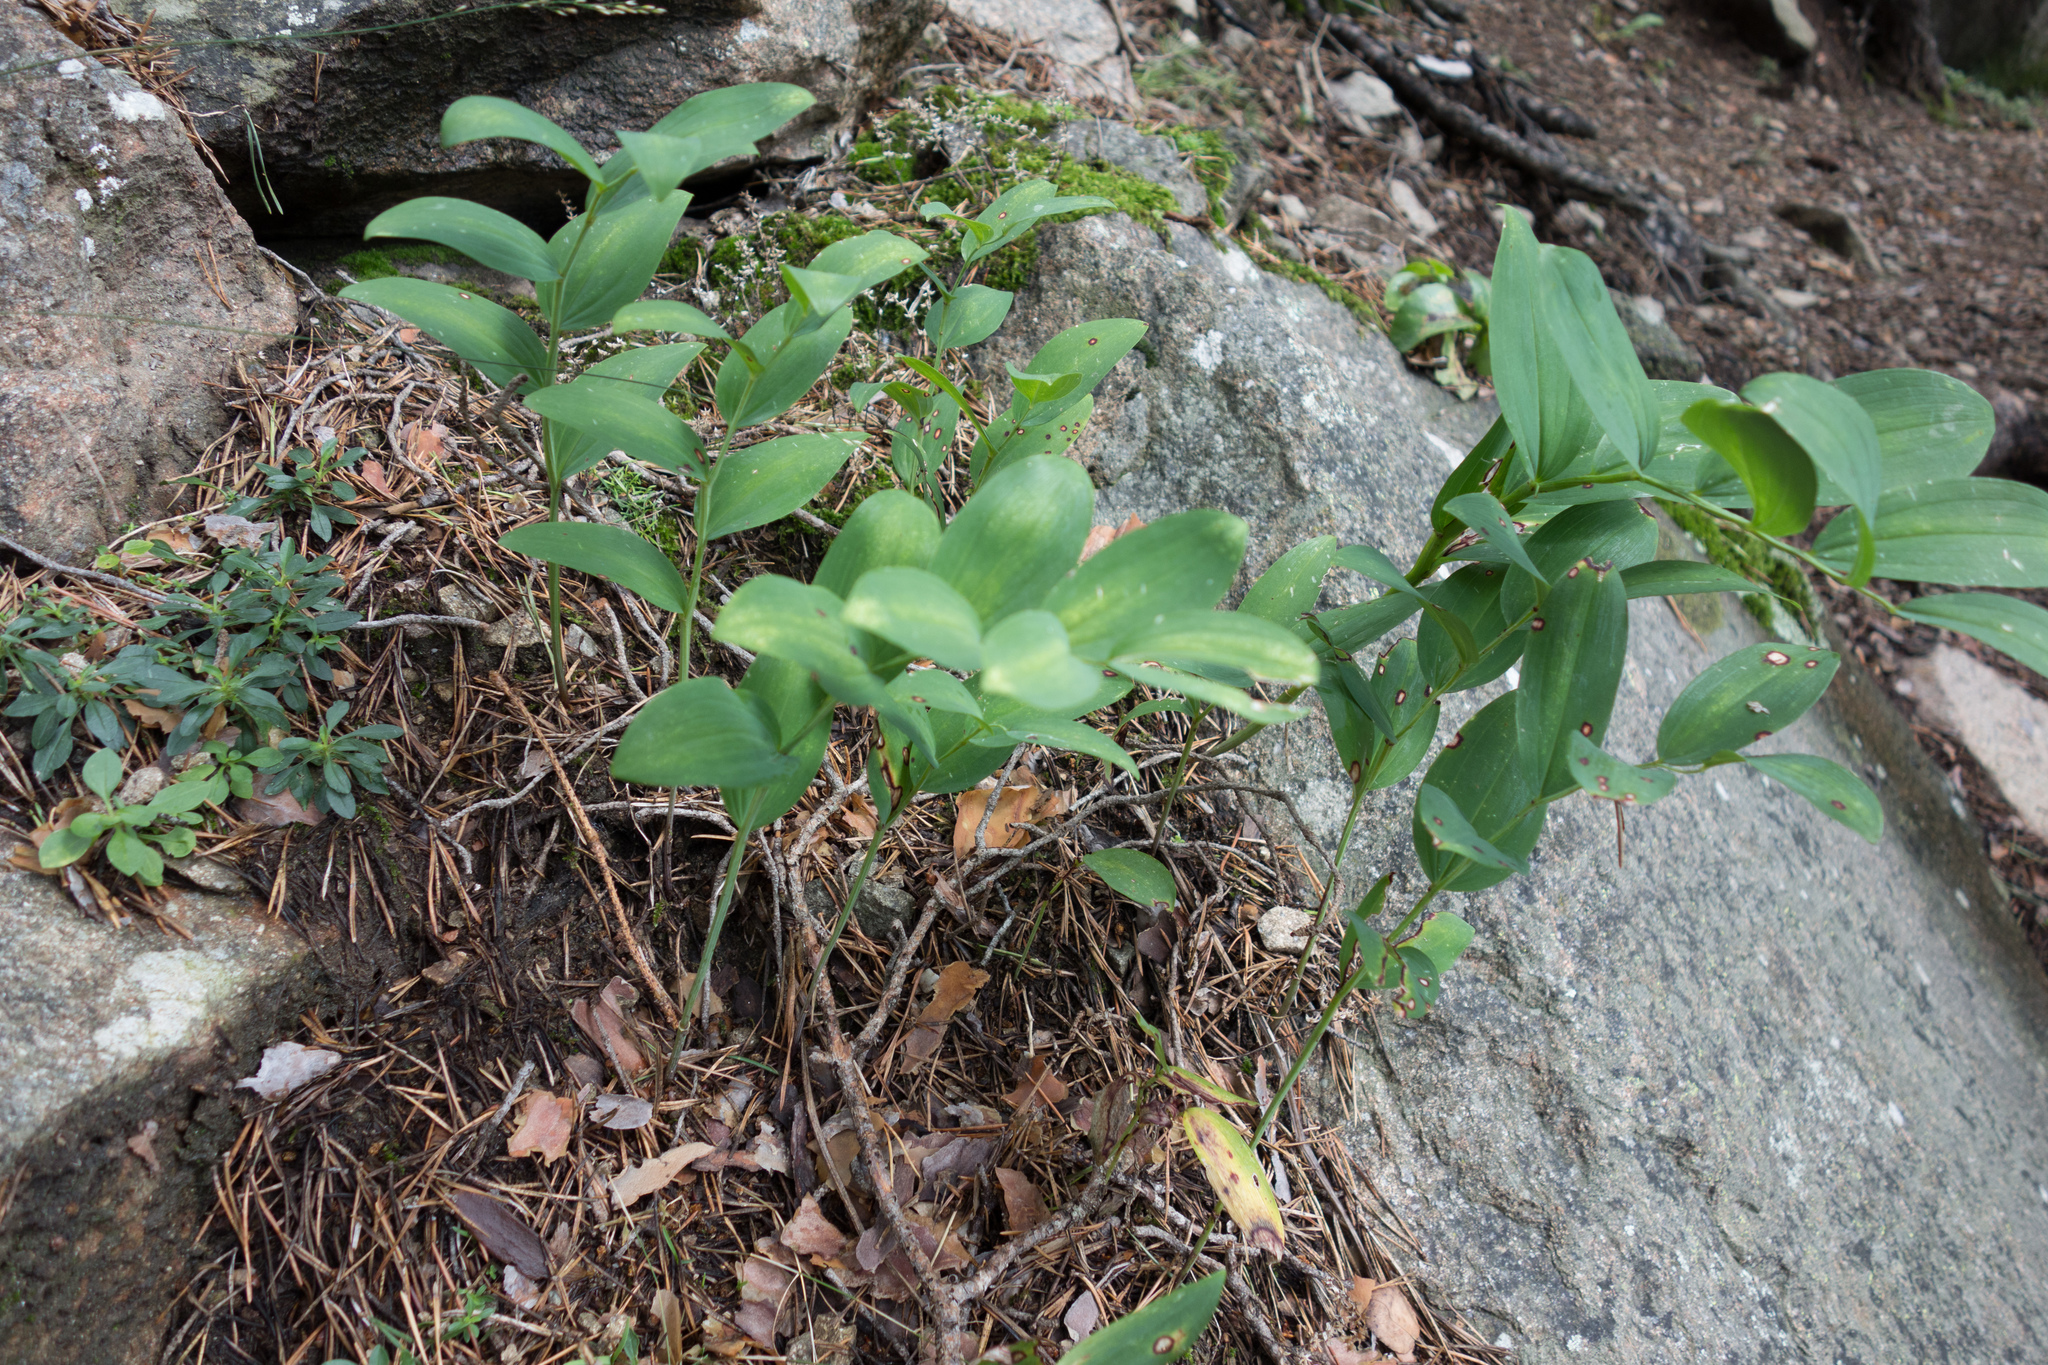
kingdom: Plantae
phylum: Tracheophyta
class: Liliopsida
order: Asparagales
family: Asparagaceae
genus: Polygonatum
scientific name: Polygonatum odoratum
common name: Angular solomon's-seal
